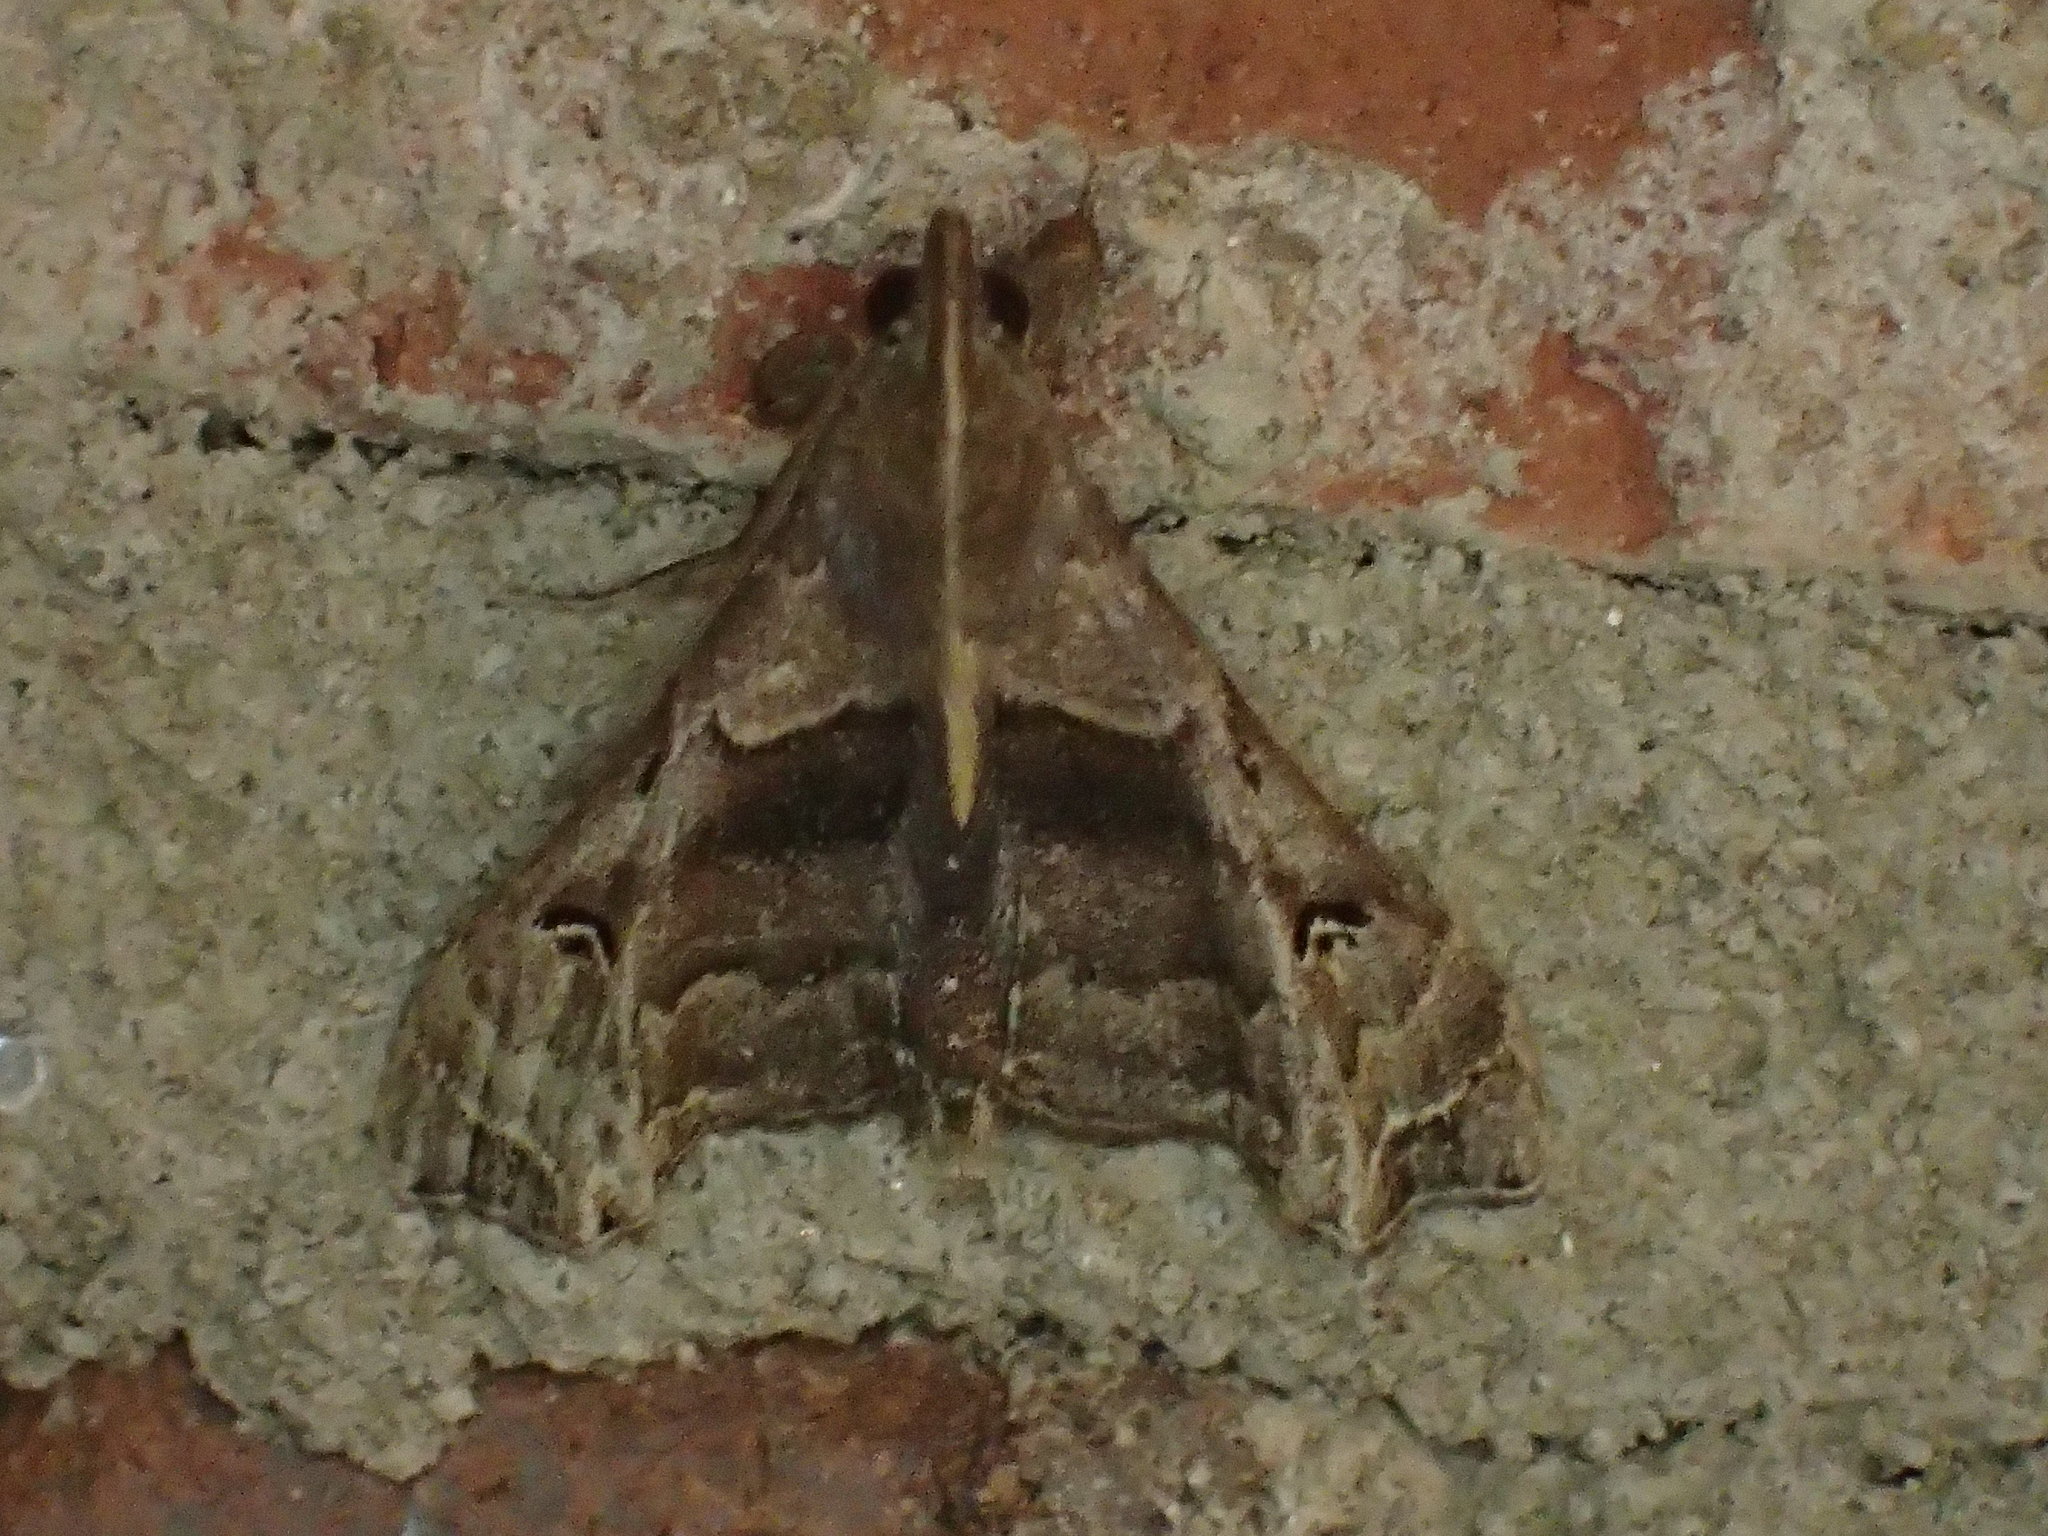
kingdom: Animalia
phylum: Arthropoda
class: Insecta
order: Lepidoptera
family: Erebidae
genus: Palthis
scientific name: Palthis asopialis
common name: Faint-spotted palthis moth
